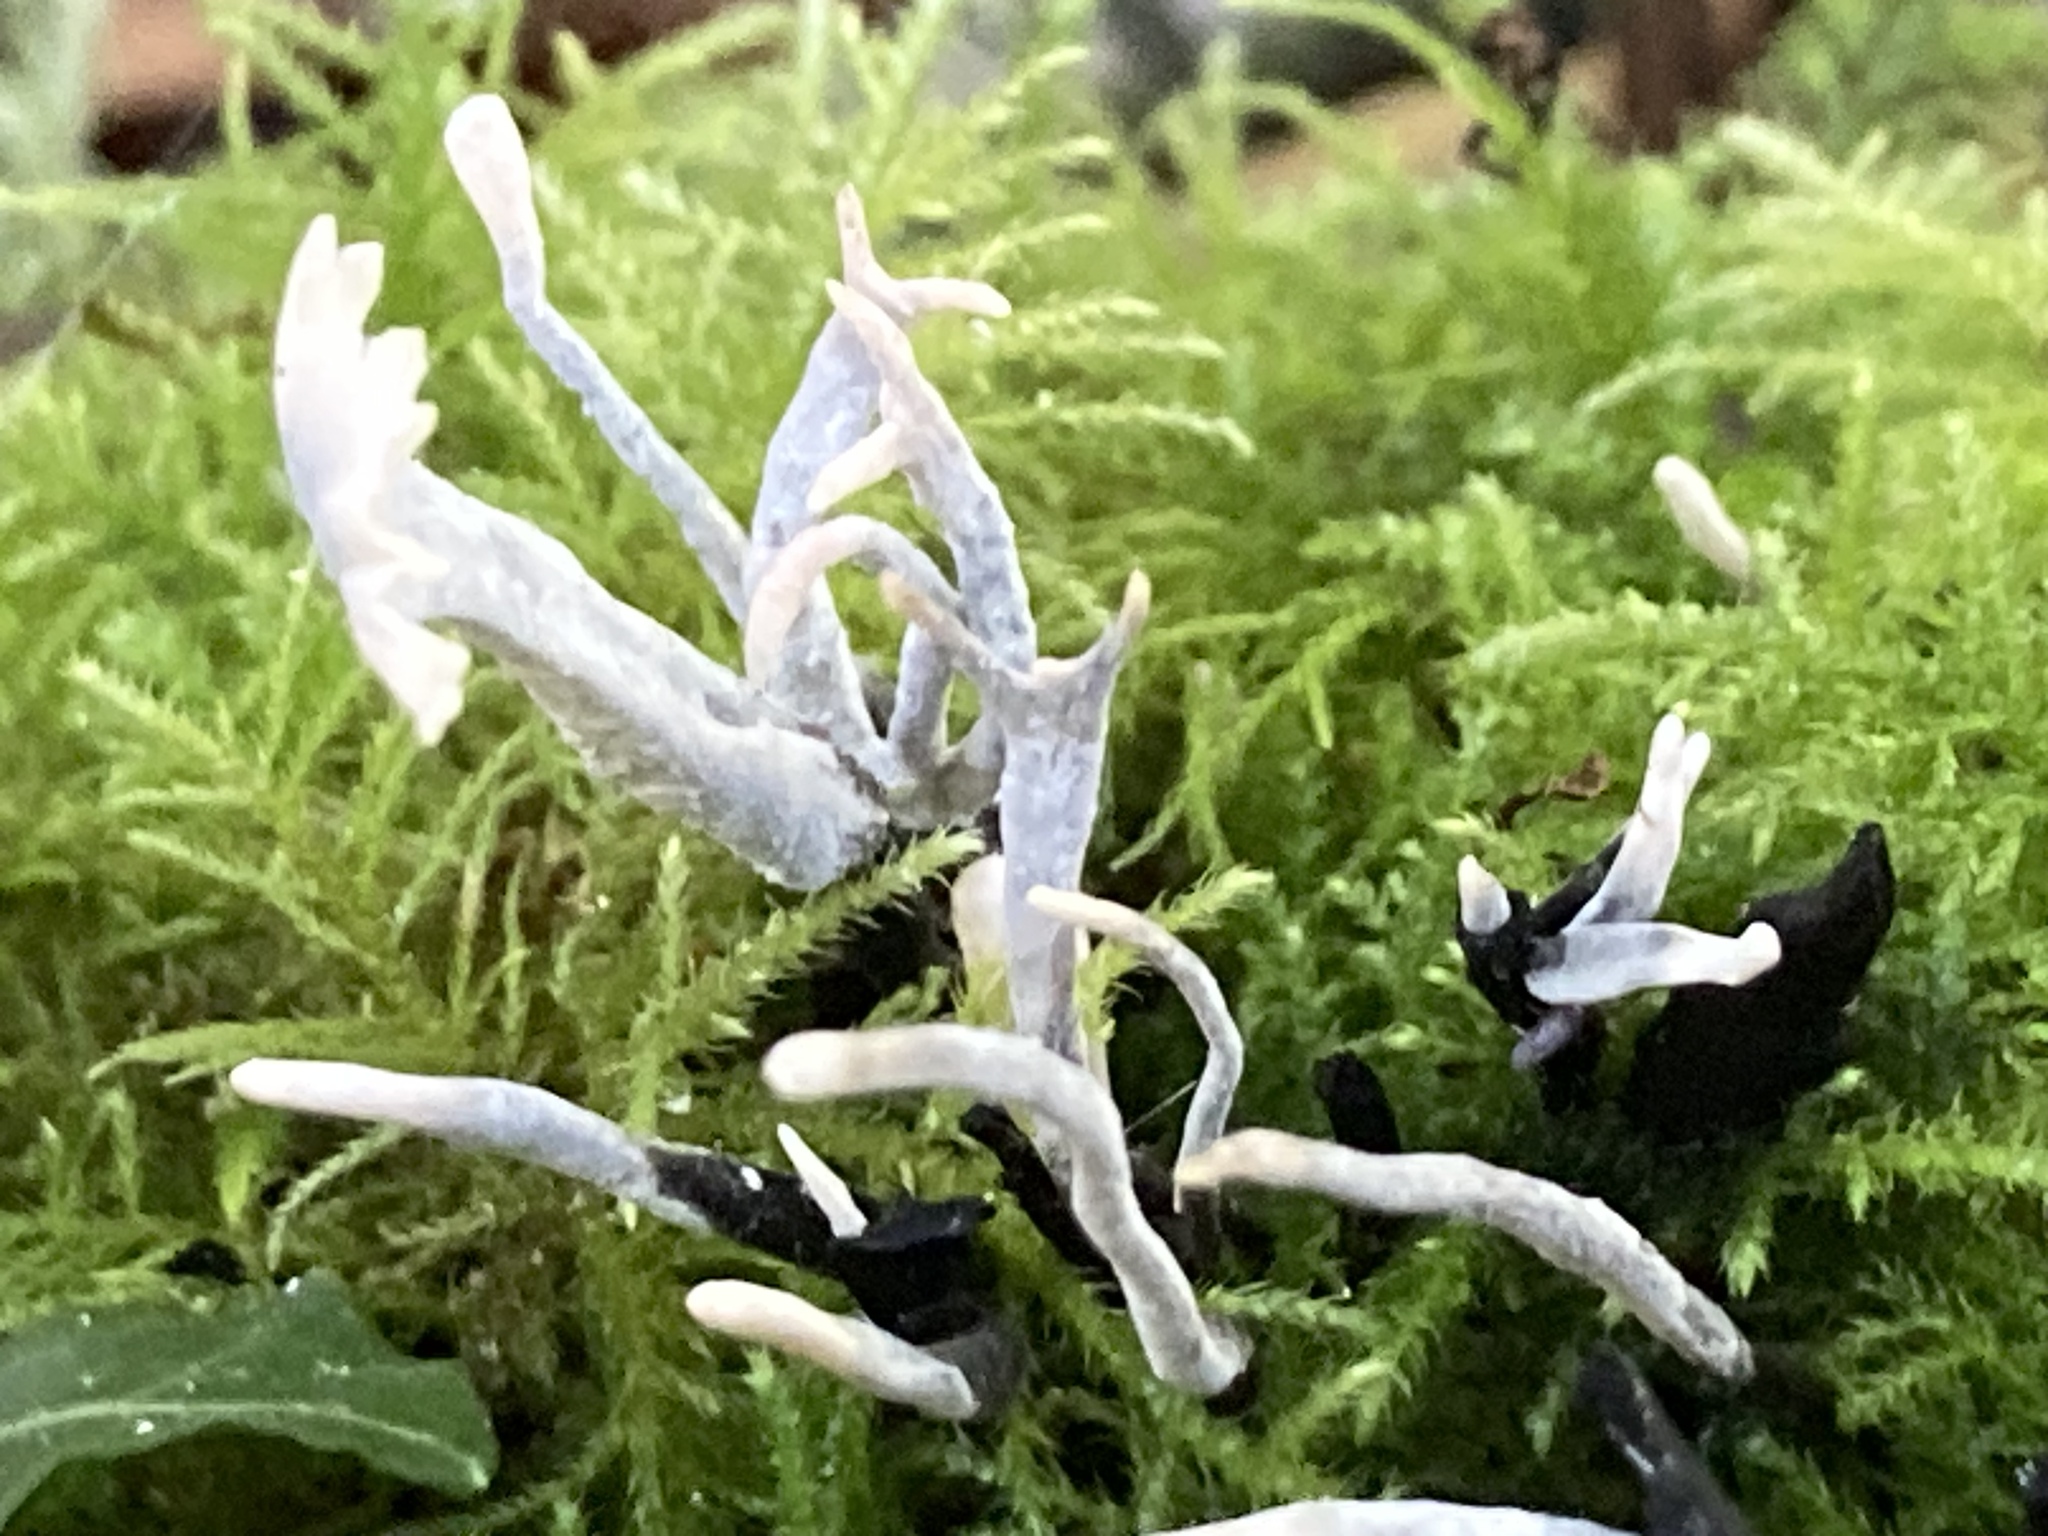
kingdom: Fungi
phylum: Ascomycota
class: Sordariomycetes
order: Xylariales
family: Xylariaceae
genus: Xylaria
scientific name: Xylaria hypoxylon
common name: Candle-snuff fungus
